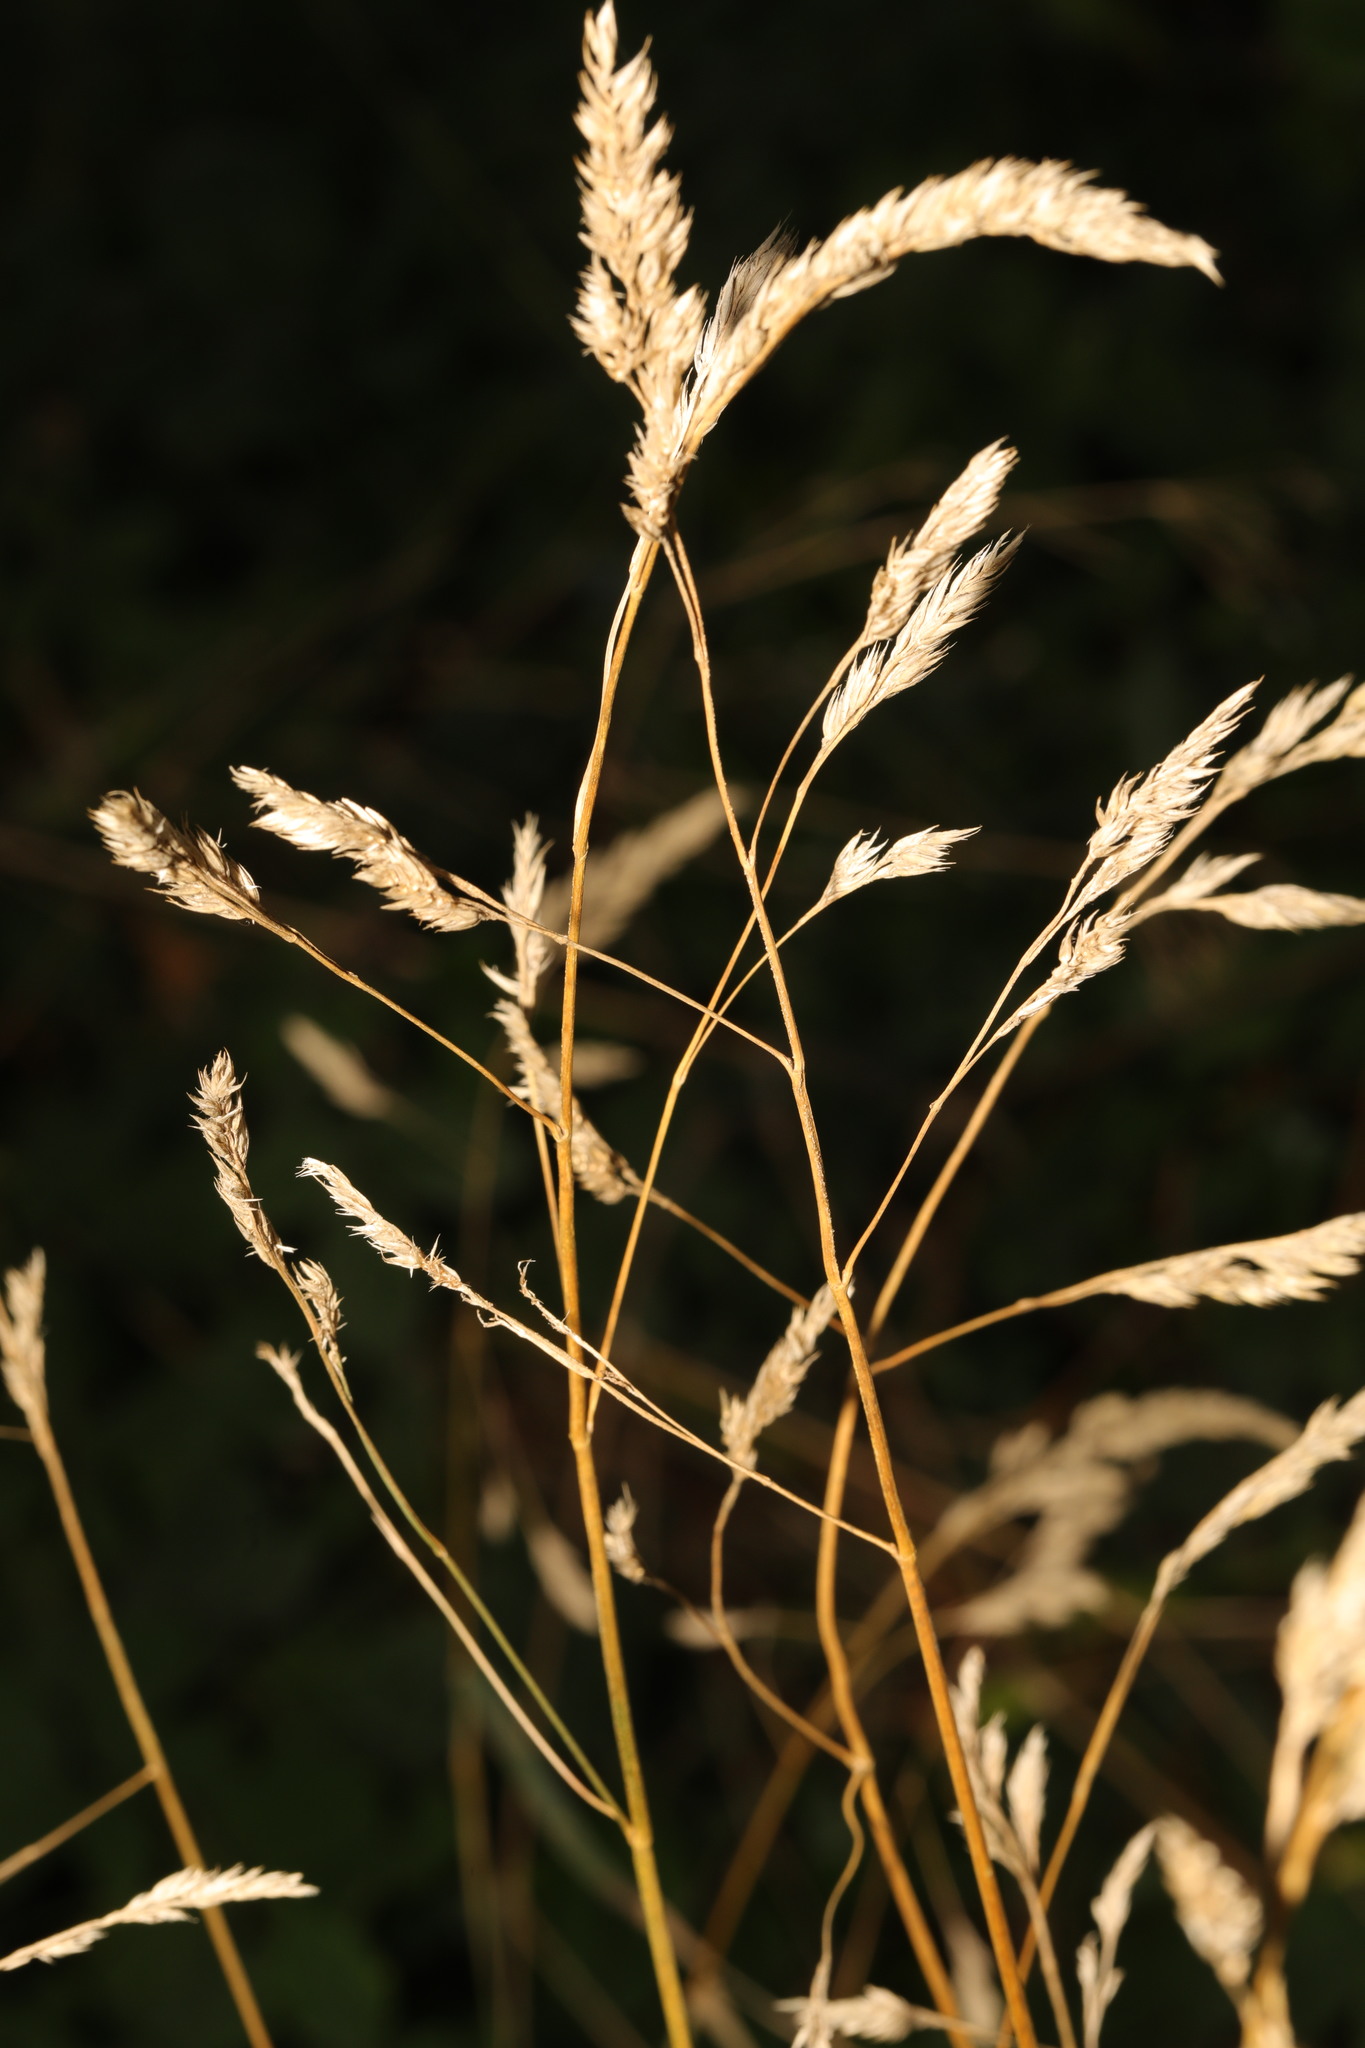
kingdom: Plantae
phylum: Tracheophyta
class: Liliopsida
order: Poales
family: Poaceae
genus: Dactylis
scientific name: Dactylis glomerata
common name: Orchardgrass
